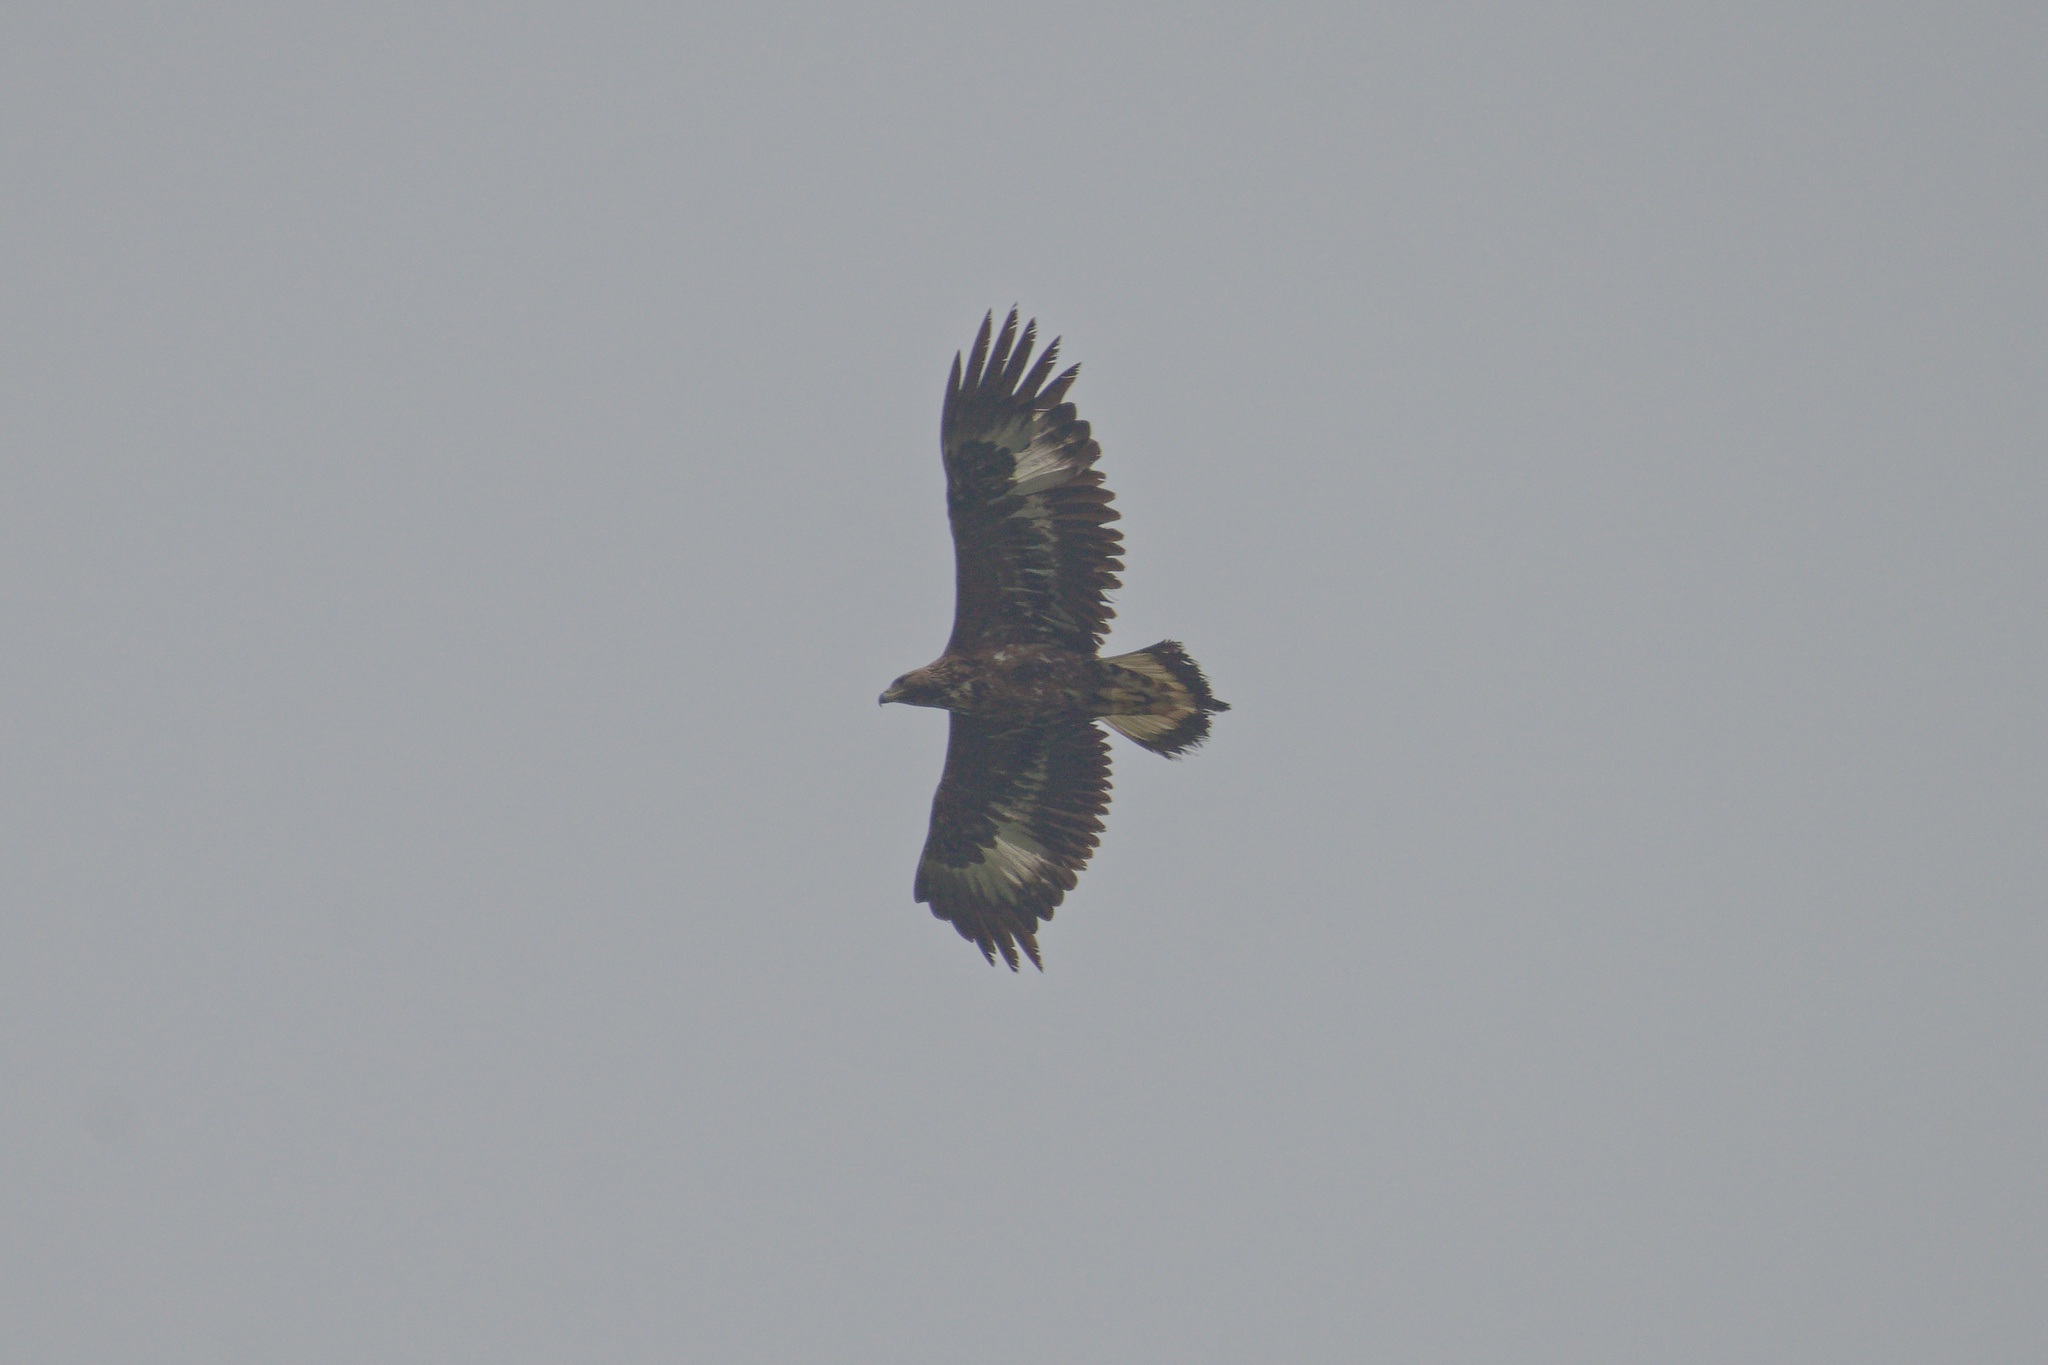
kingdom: Animalia
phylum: Chordata
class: Aves
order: Accipitriformes
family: Accipitridae
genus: Aquila
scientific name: Aquila chrysaetos
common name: Golden eagle
